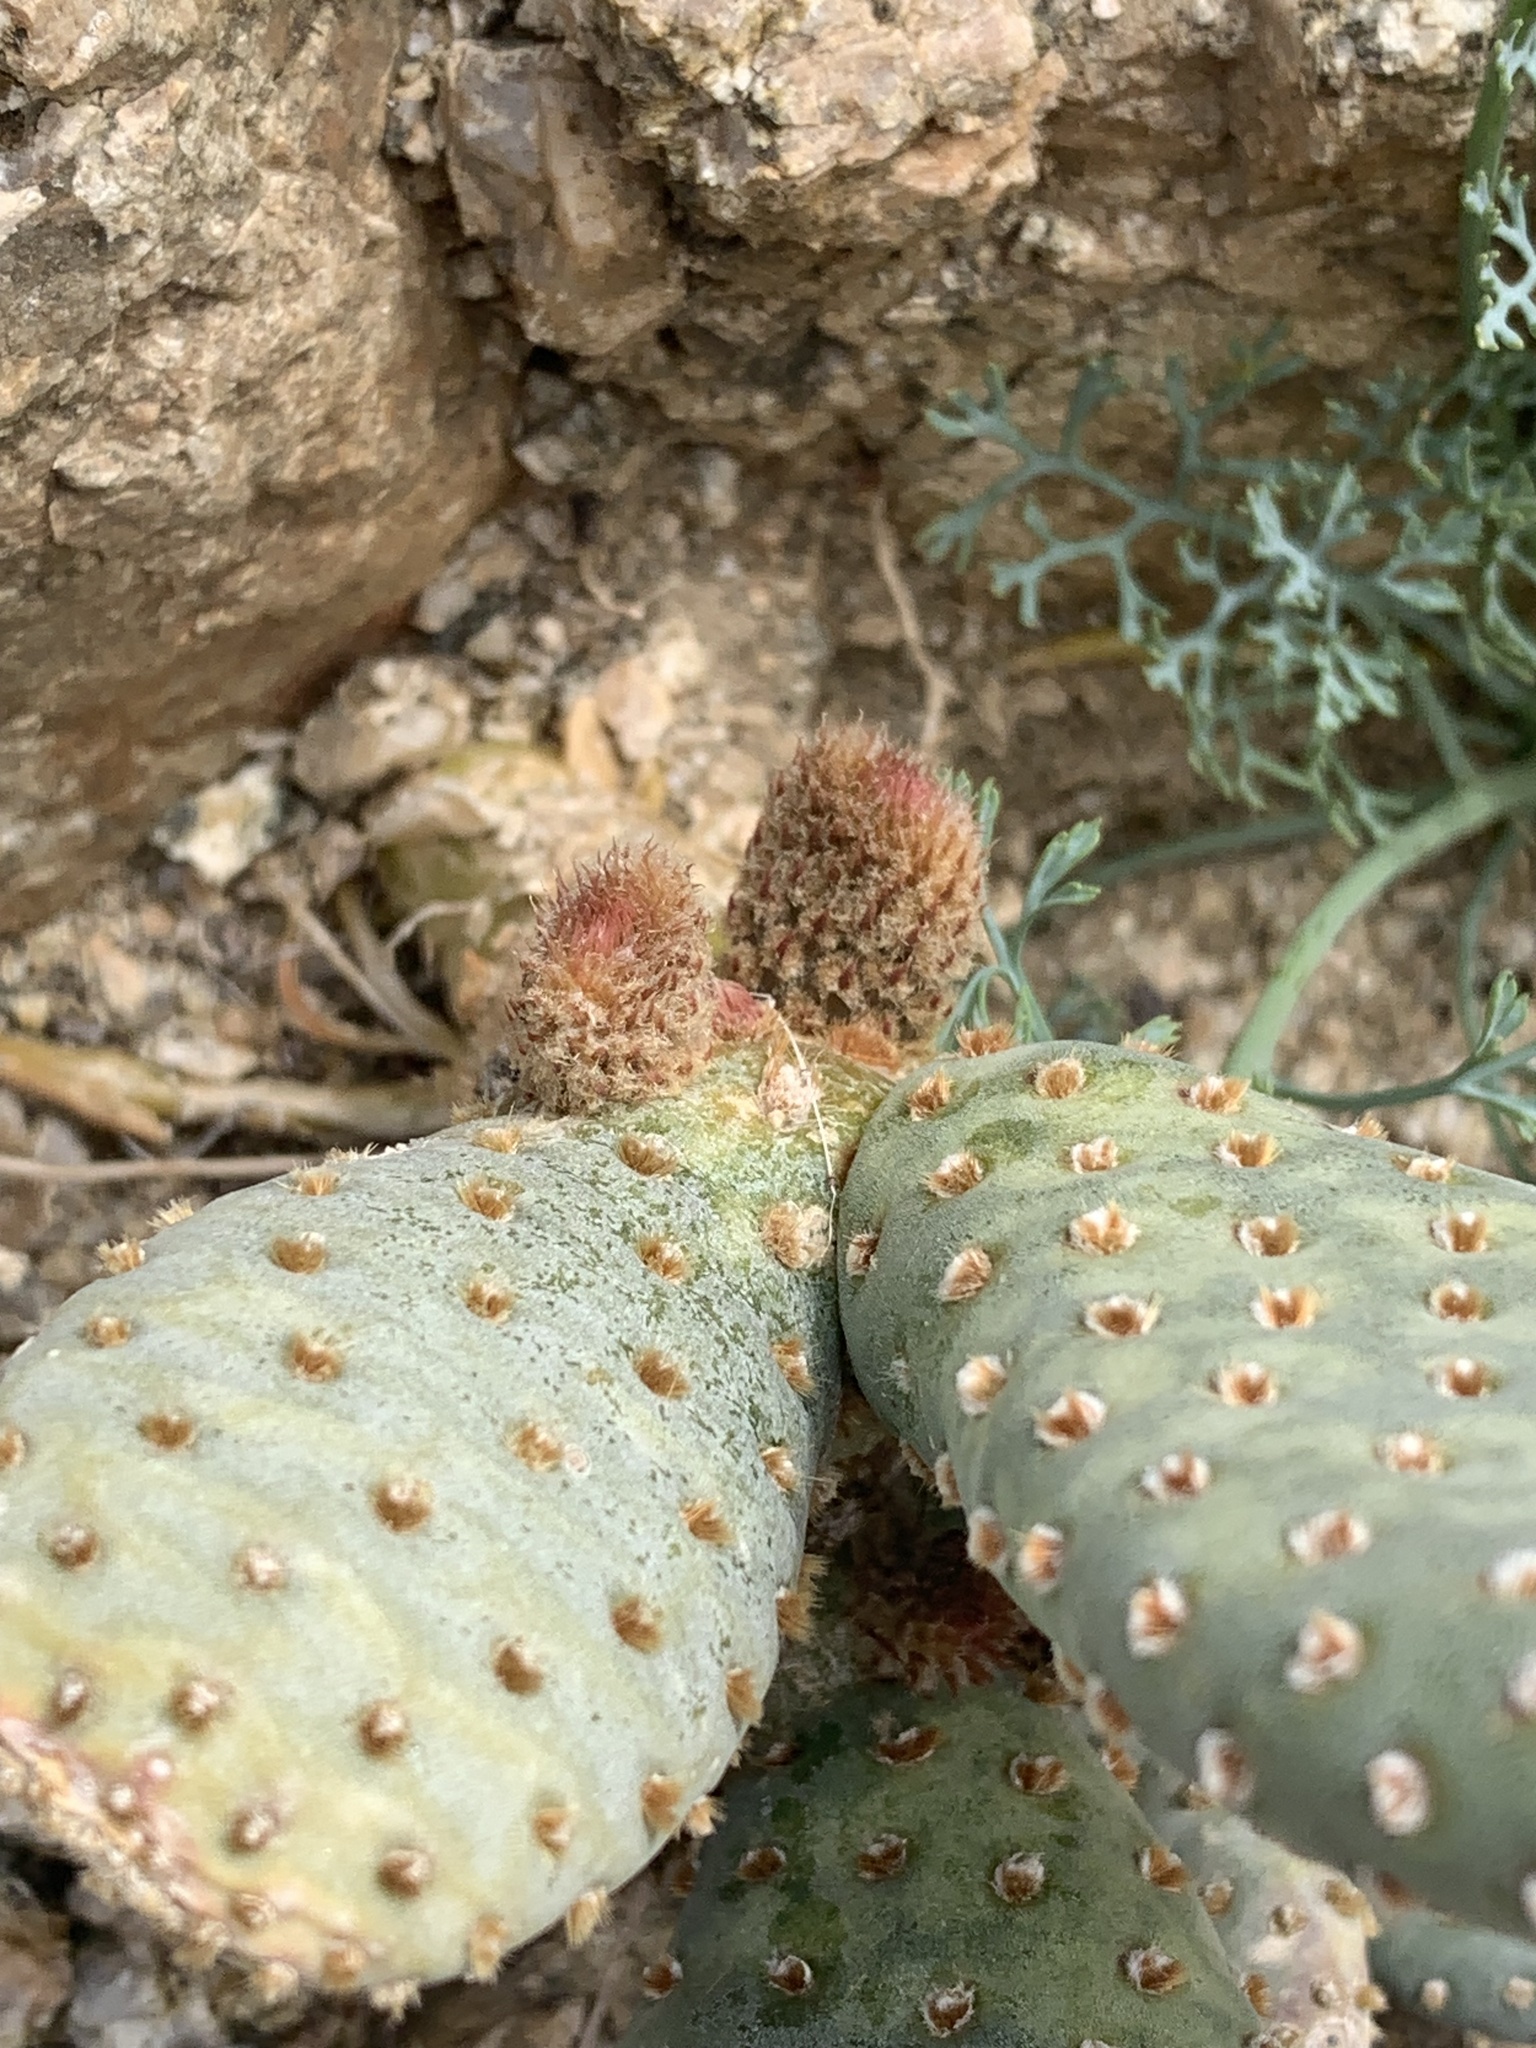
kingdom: Plantae
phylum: Tracheophyta
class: Magnoliopsida
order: Caryophyllales
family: Cactaceae
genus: Opuntia
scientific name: Opuntia basilaris
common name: Beavertail prickly-pear
